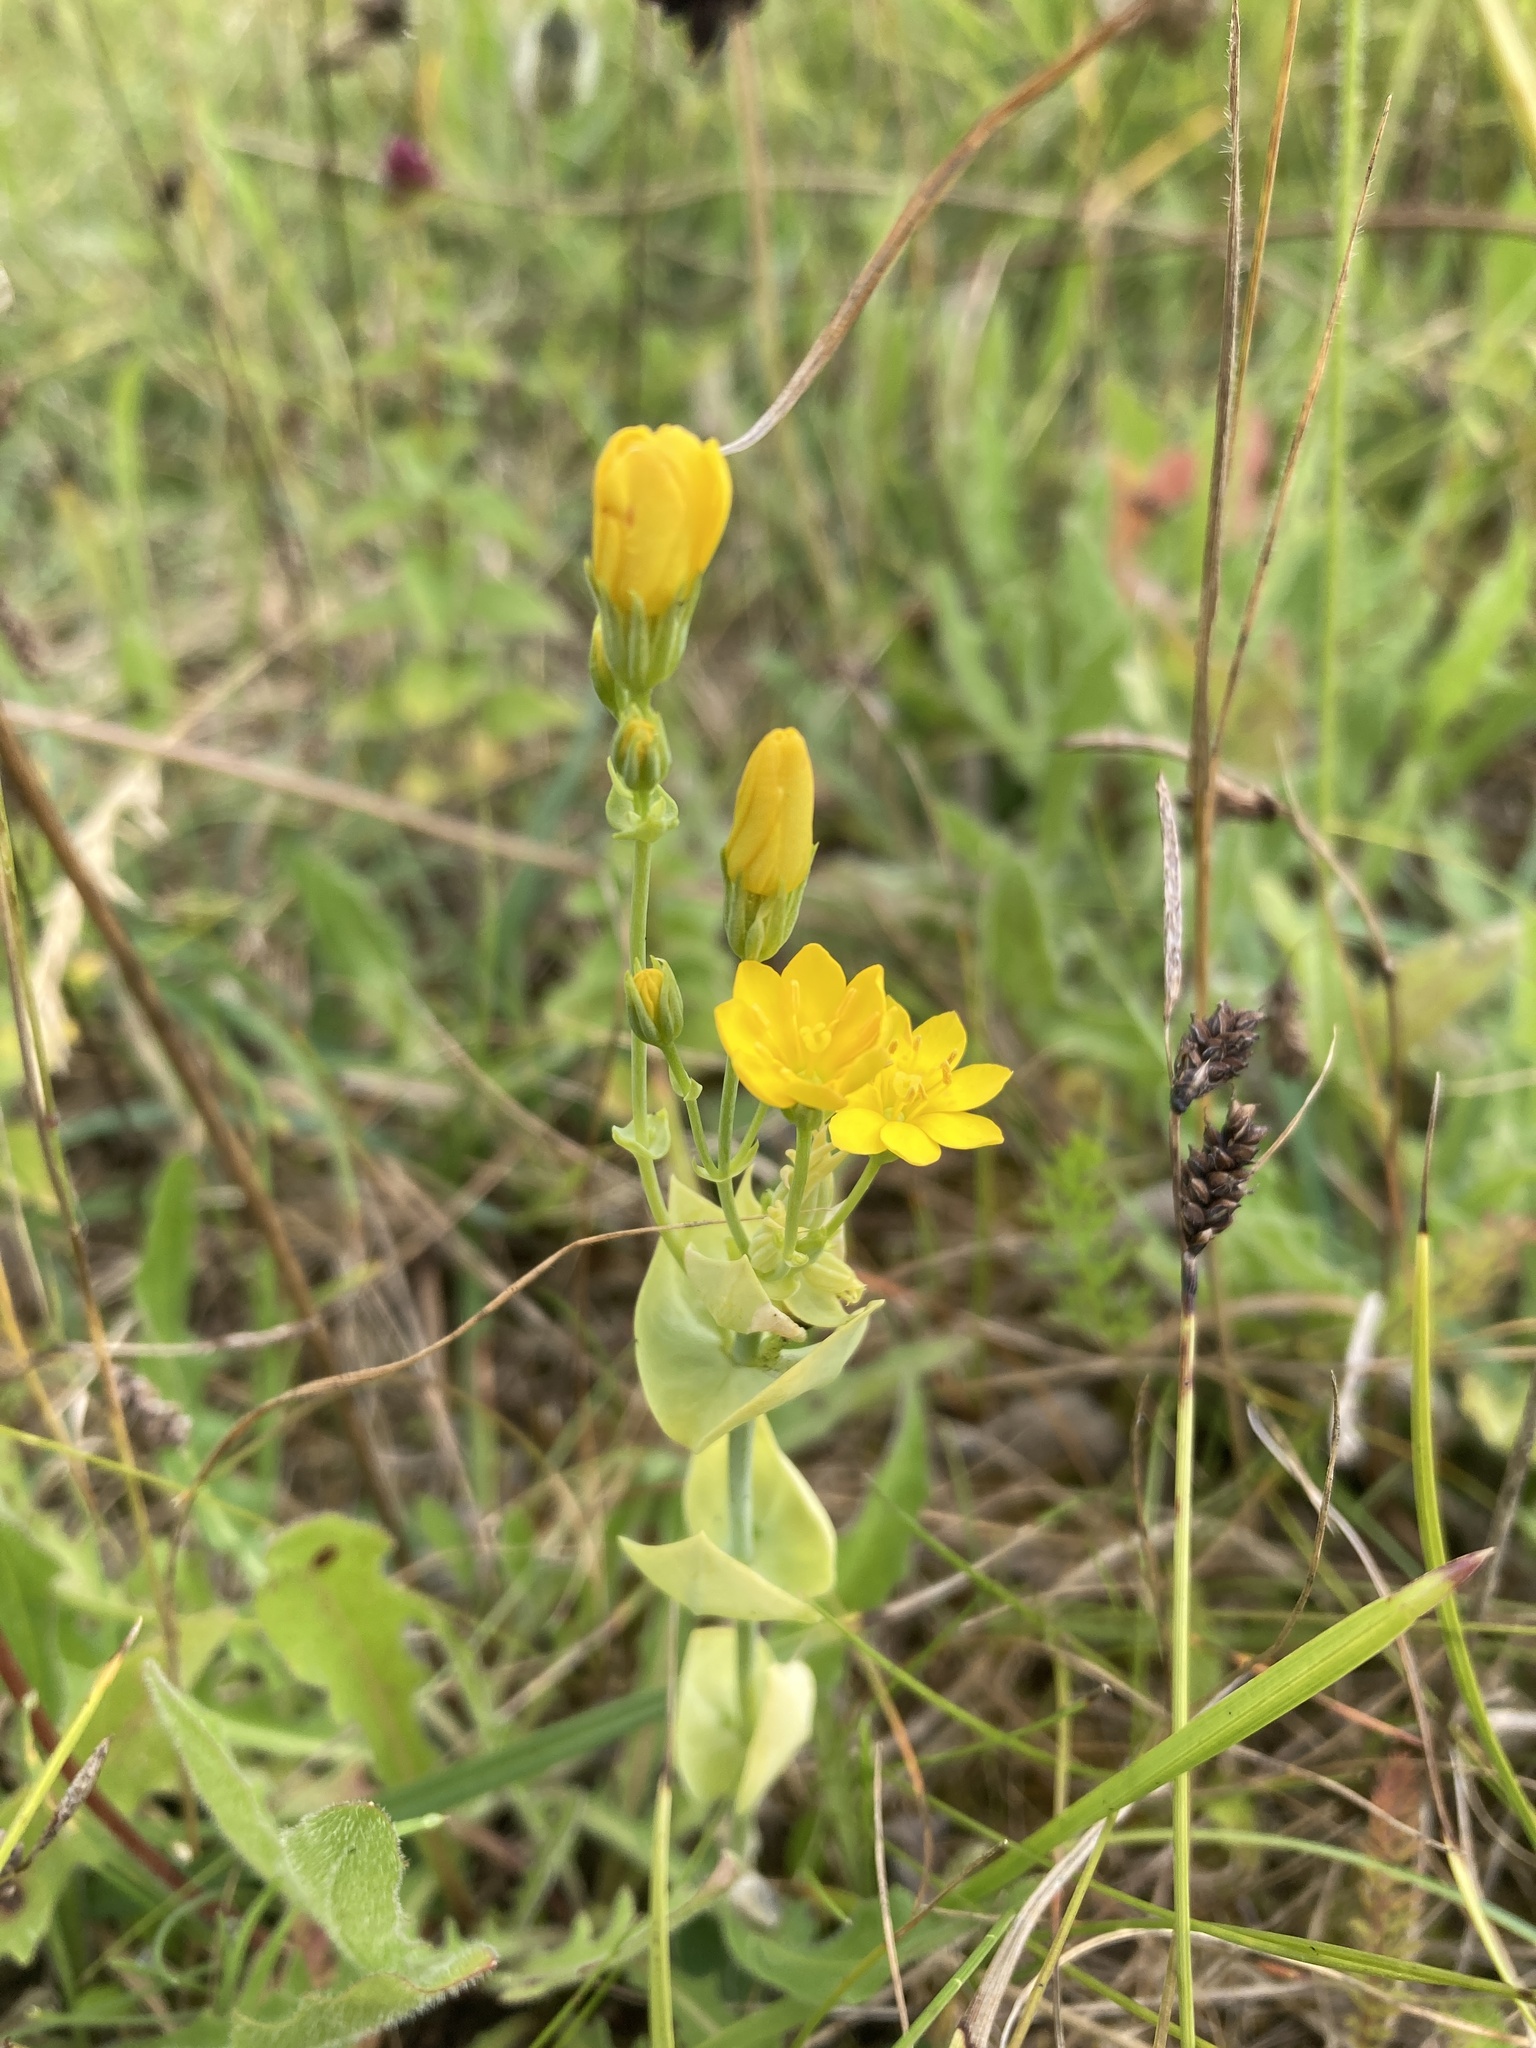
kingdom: Plantae
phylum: Tracheophyta
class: Magnoliopsida
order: Gentianales
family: Gentianaceae
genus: Blackstonia
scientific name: Blackstonia perfoliata
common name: Yellow-wort
